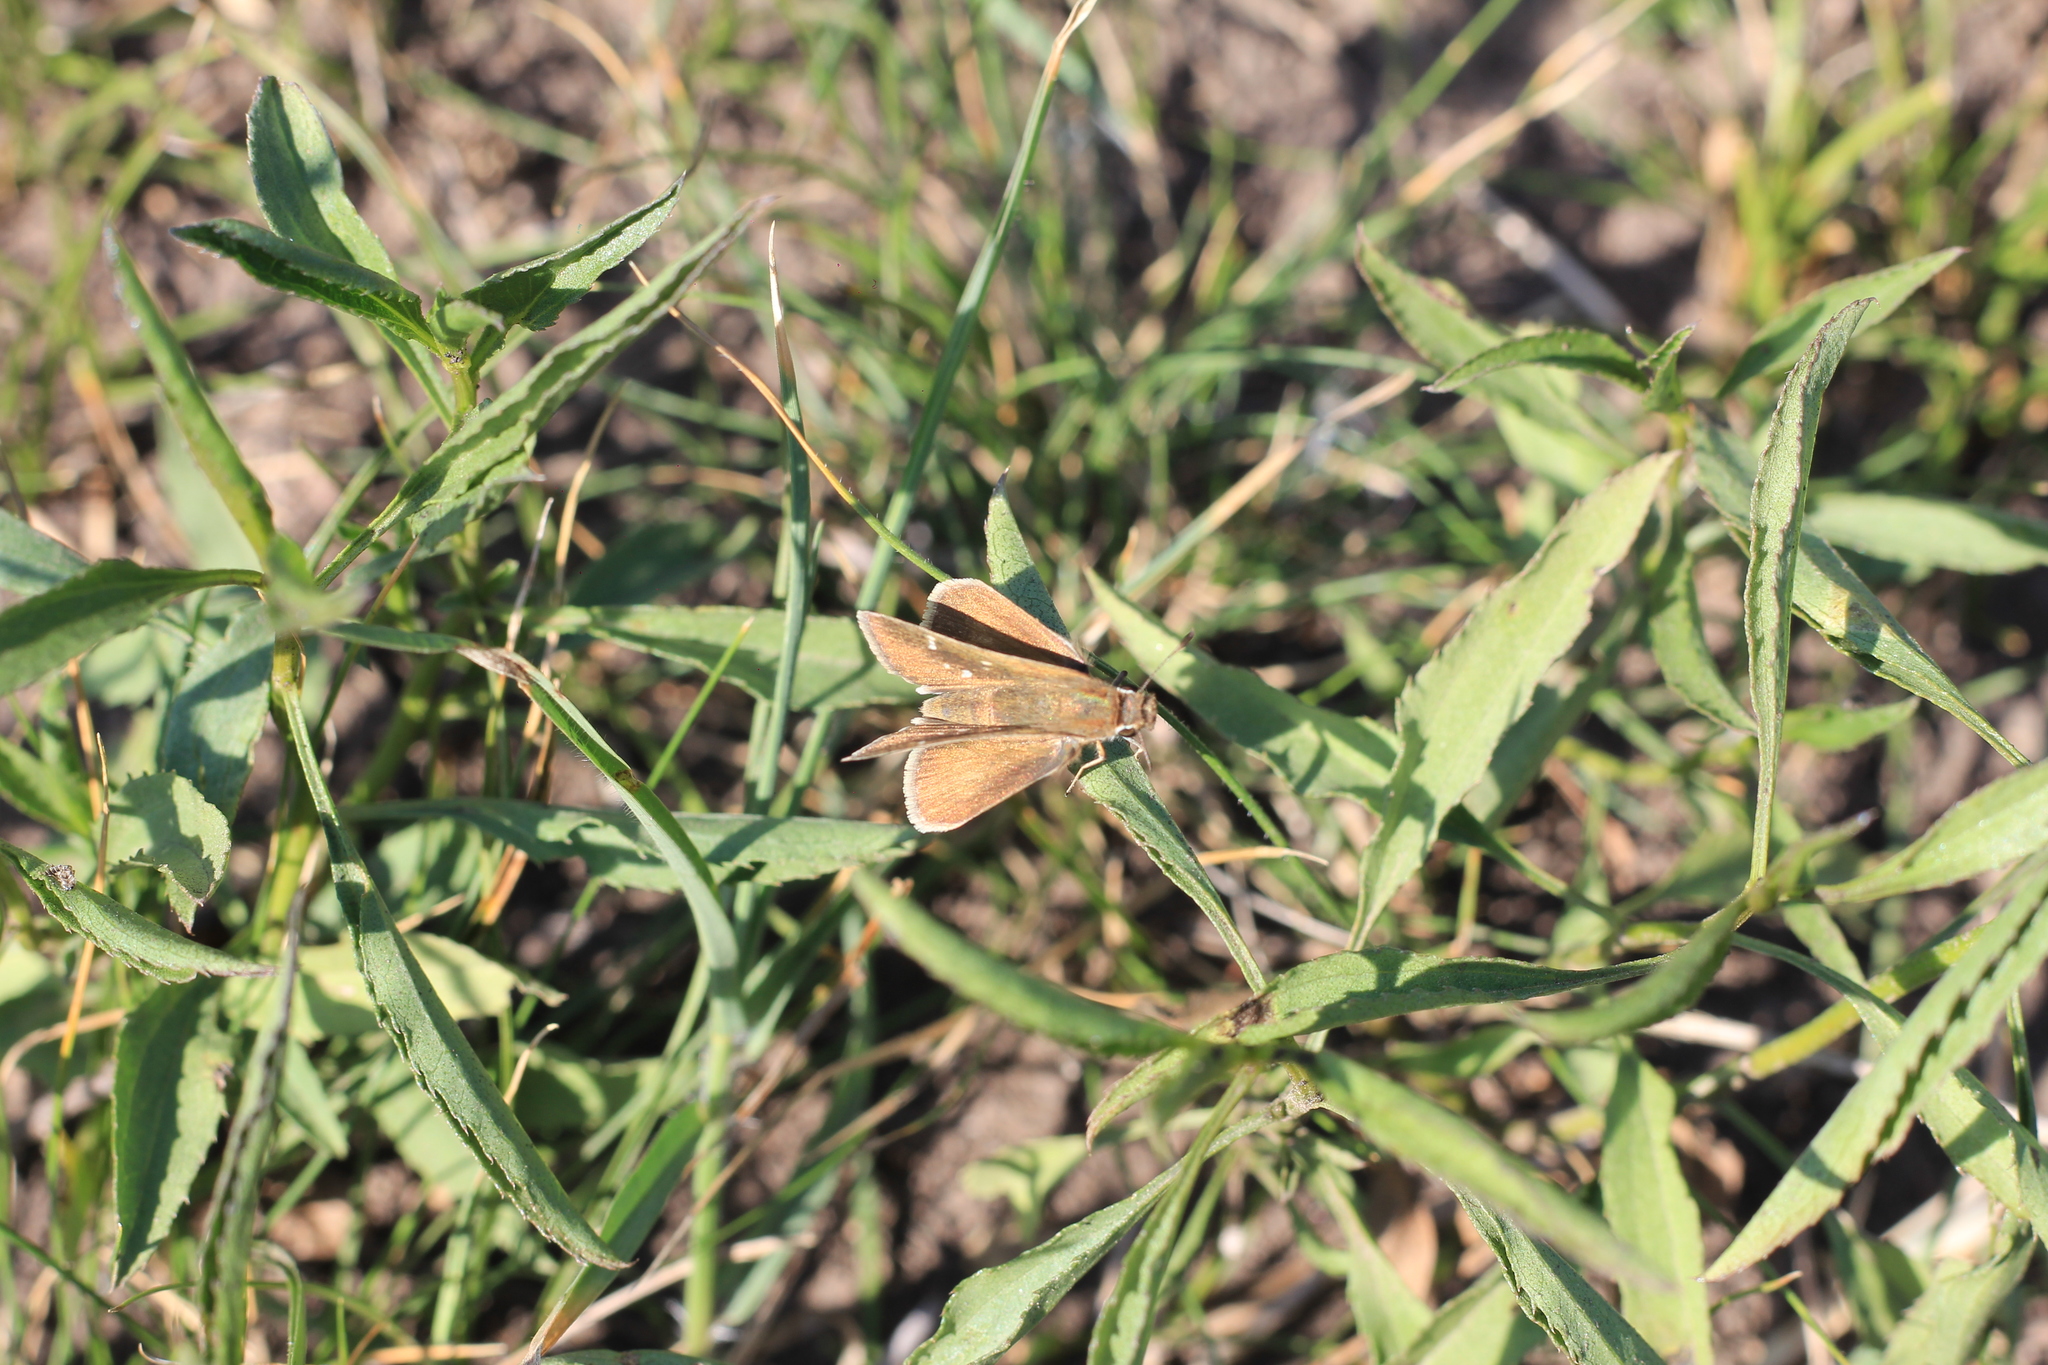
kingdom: Animalia
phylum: Arthropoda
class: Insecta
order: Lepidoptera
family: Hesperiidae
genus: Lerodea
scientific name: Lerodea eufala
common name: Eufala skipper
